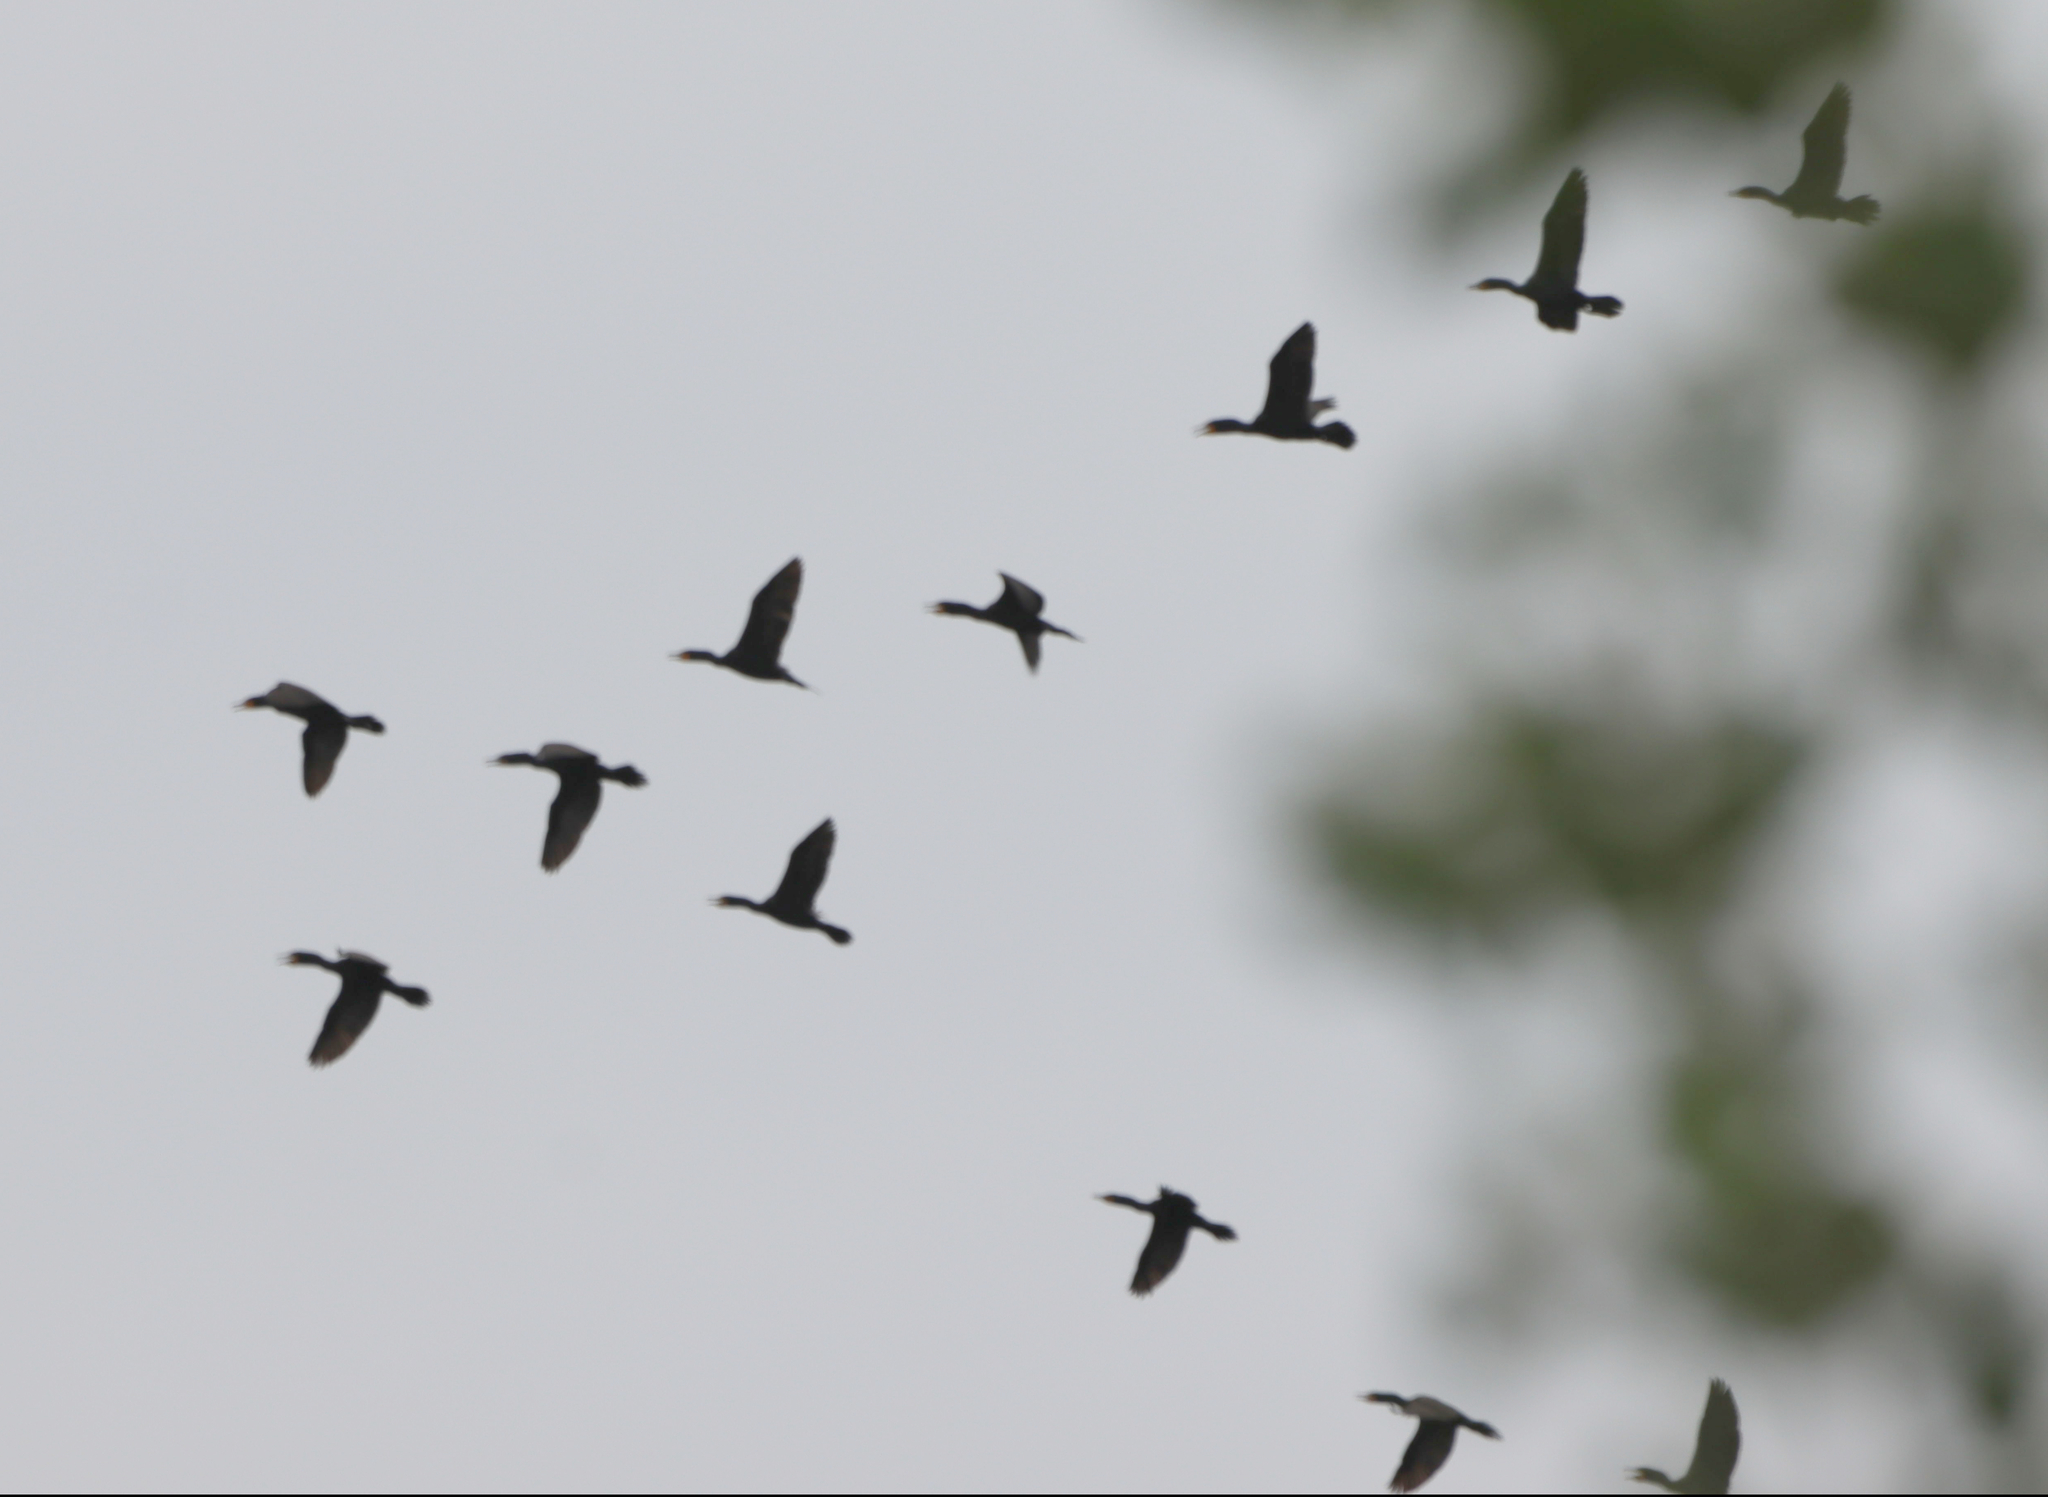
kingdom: Animalia
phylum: Chordata
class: Aves
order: Suliformes
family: Phalacrocoracidae
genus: Phalacrocorax
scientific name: Phalacrocorax auritus
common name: Double-crested cormorant
